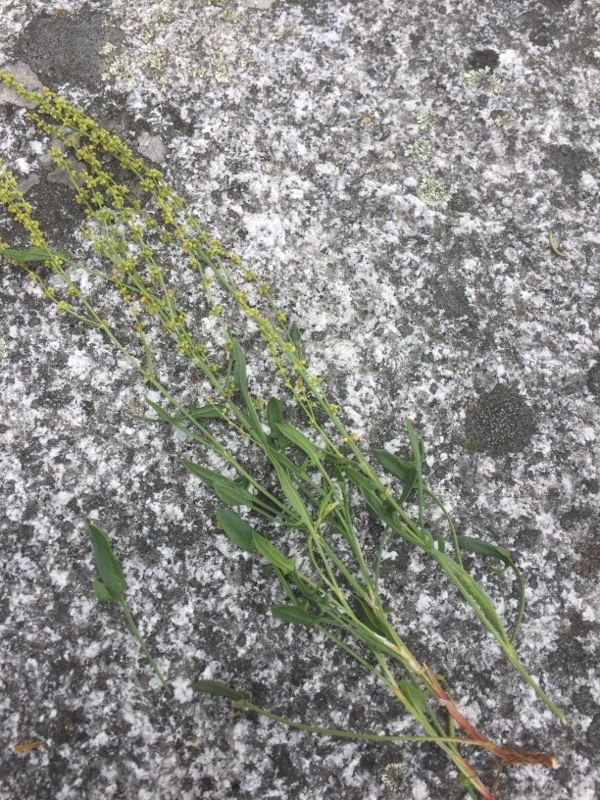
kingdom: Plantae
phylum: Tracheophyta
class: Magnoliopsida
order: Caryophyllales
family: Polygonaceae
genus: Rumex
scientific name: Rumex acetosella
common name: Common sheep sorrel
